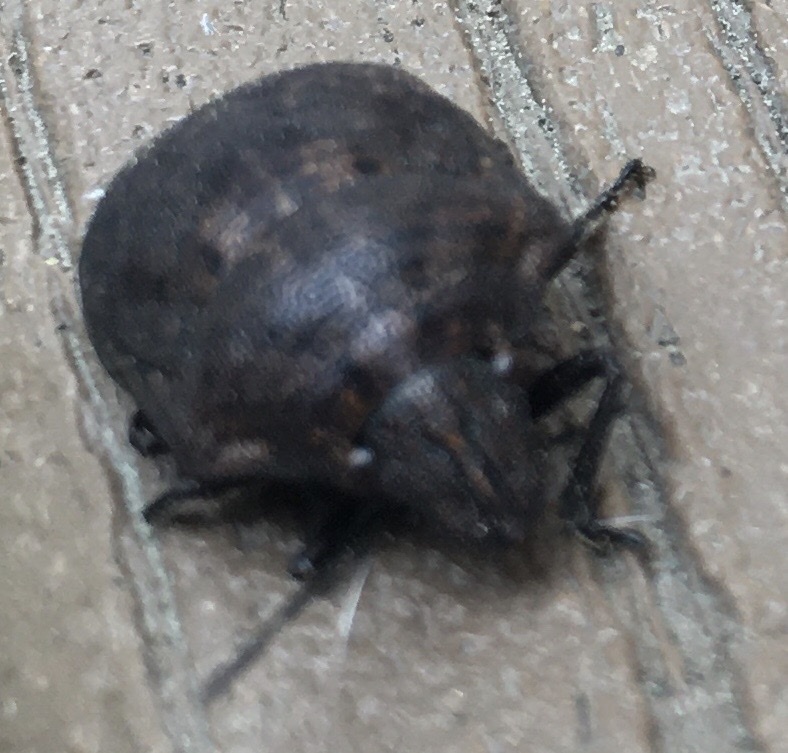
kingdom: Animalia
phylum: Arthropoda
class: Insecta
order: Hemiptera
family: Scutelleridae
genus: Tetyra
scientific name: Tetyra bipunctata
